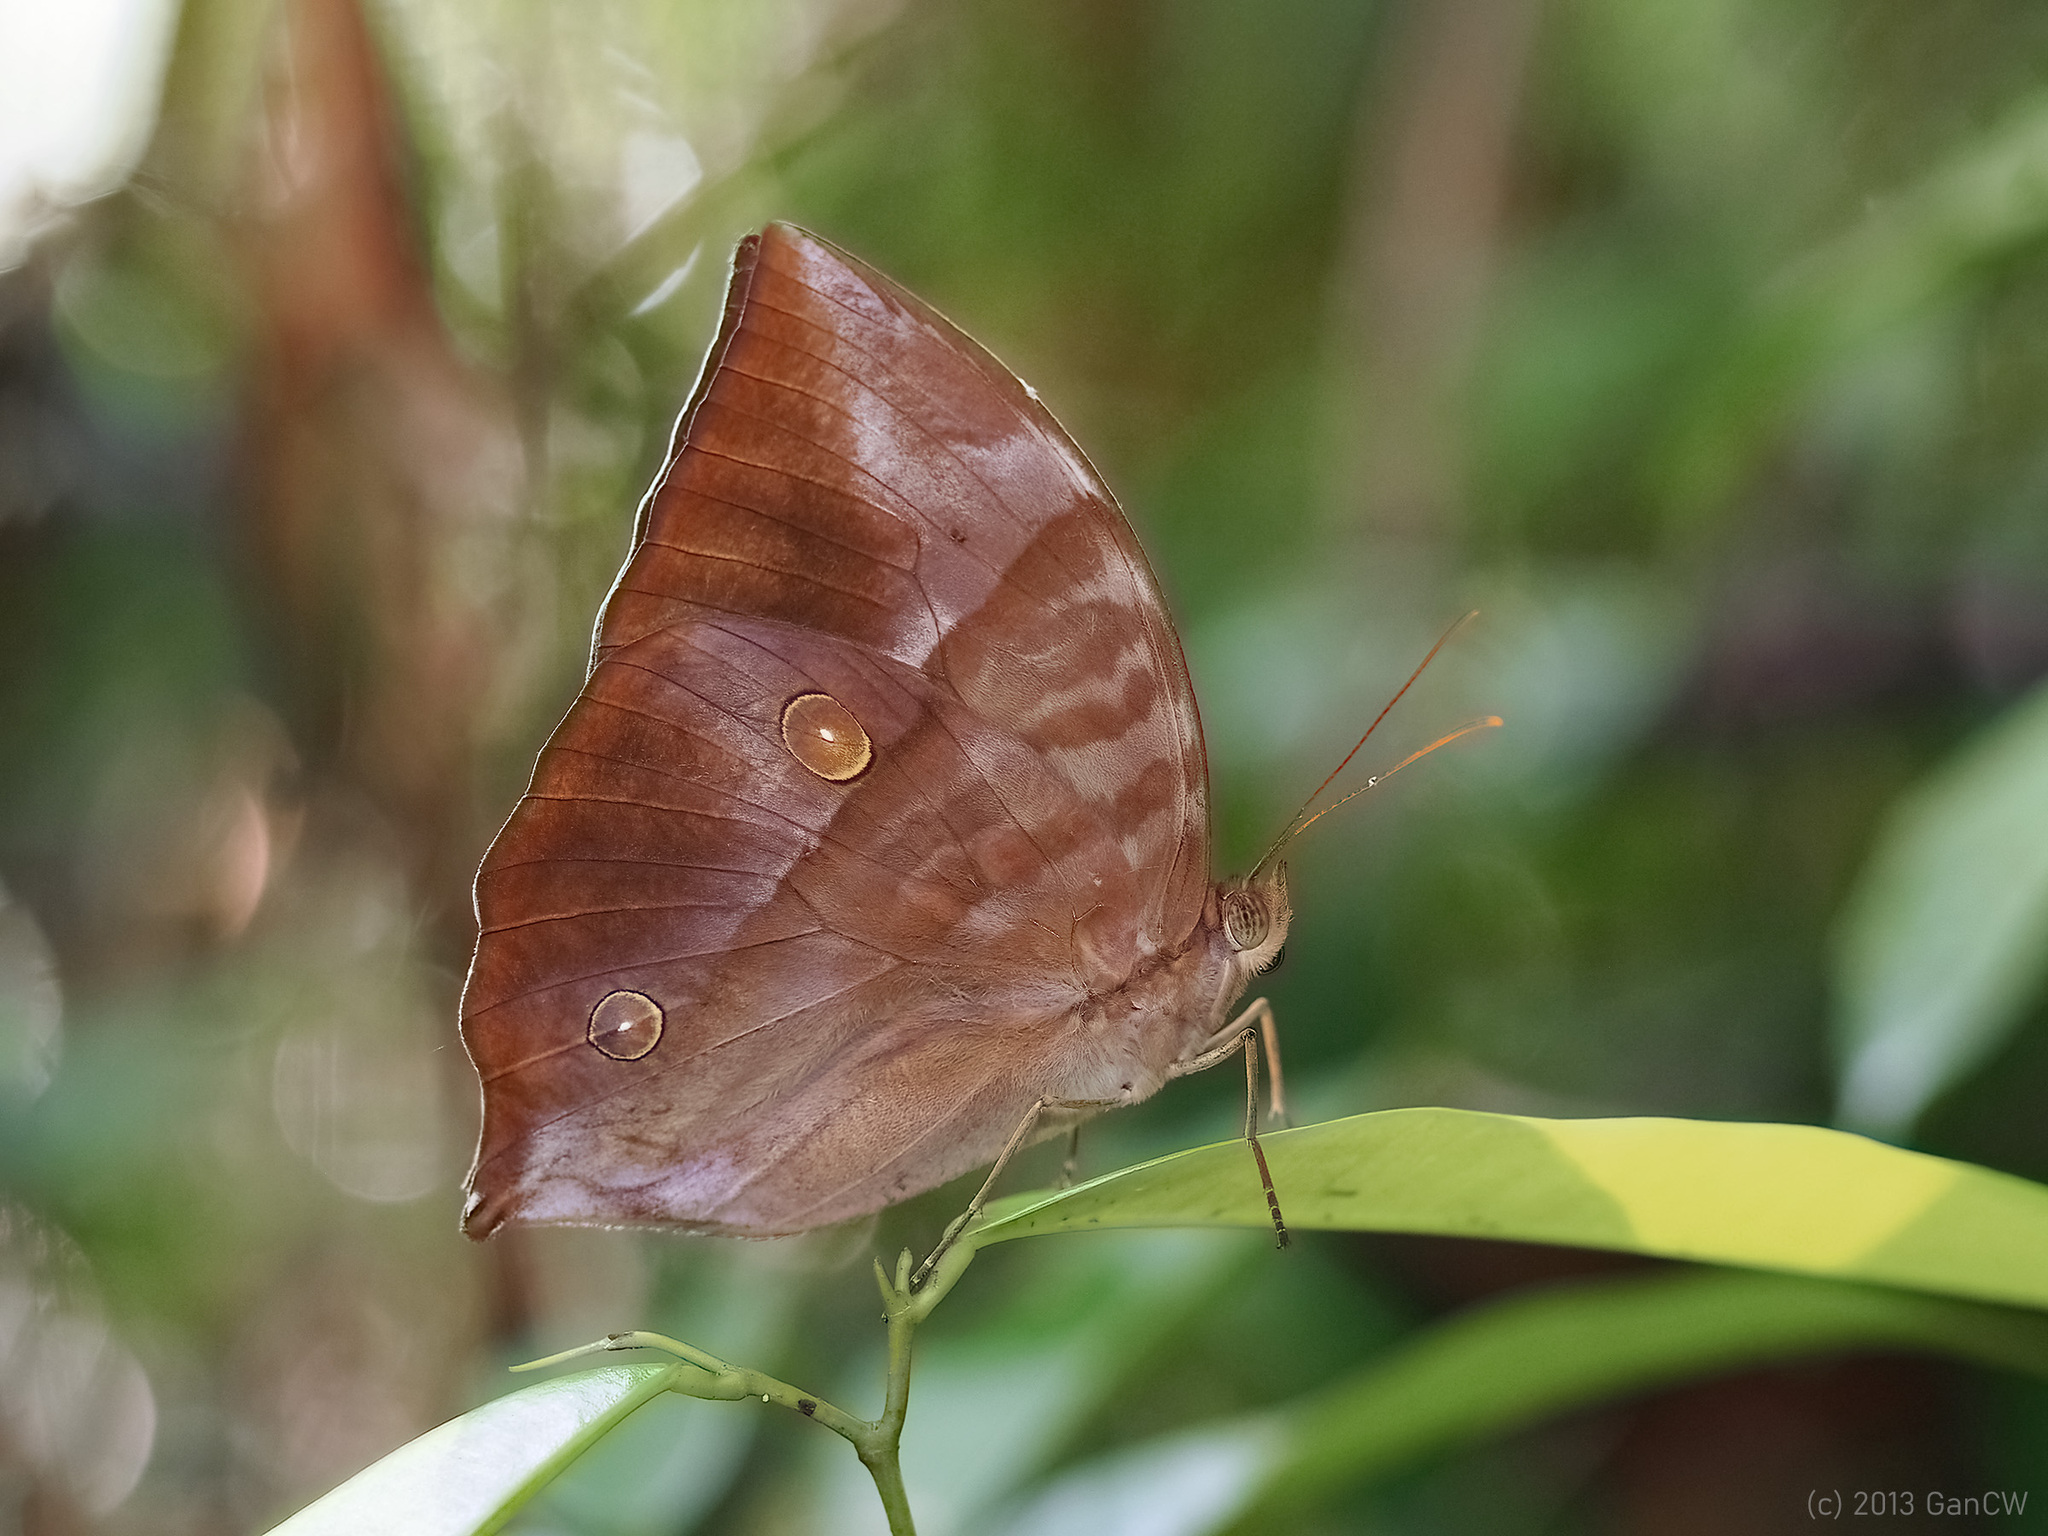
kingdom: Animalia
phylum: Arthropoda
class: Insecta
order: Lepidoptera
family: Nymphalidae
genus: Zeuxidia
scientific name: Zeuxidia amethysta
